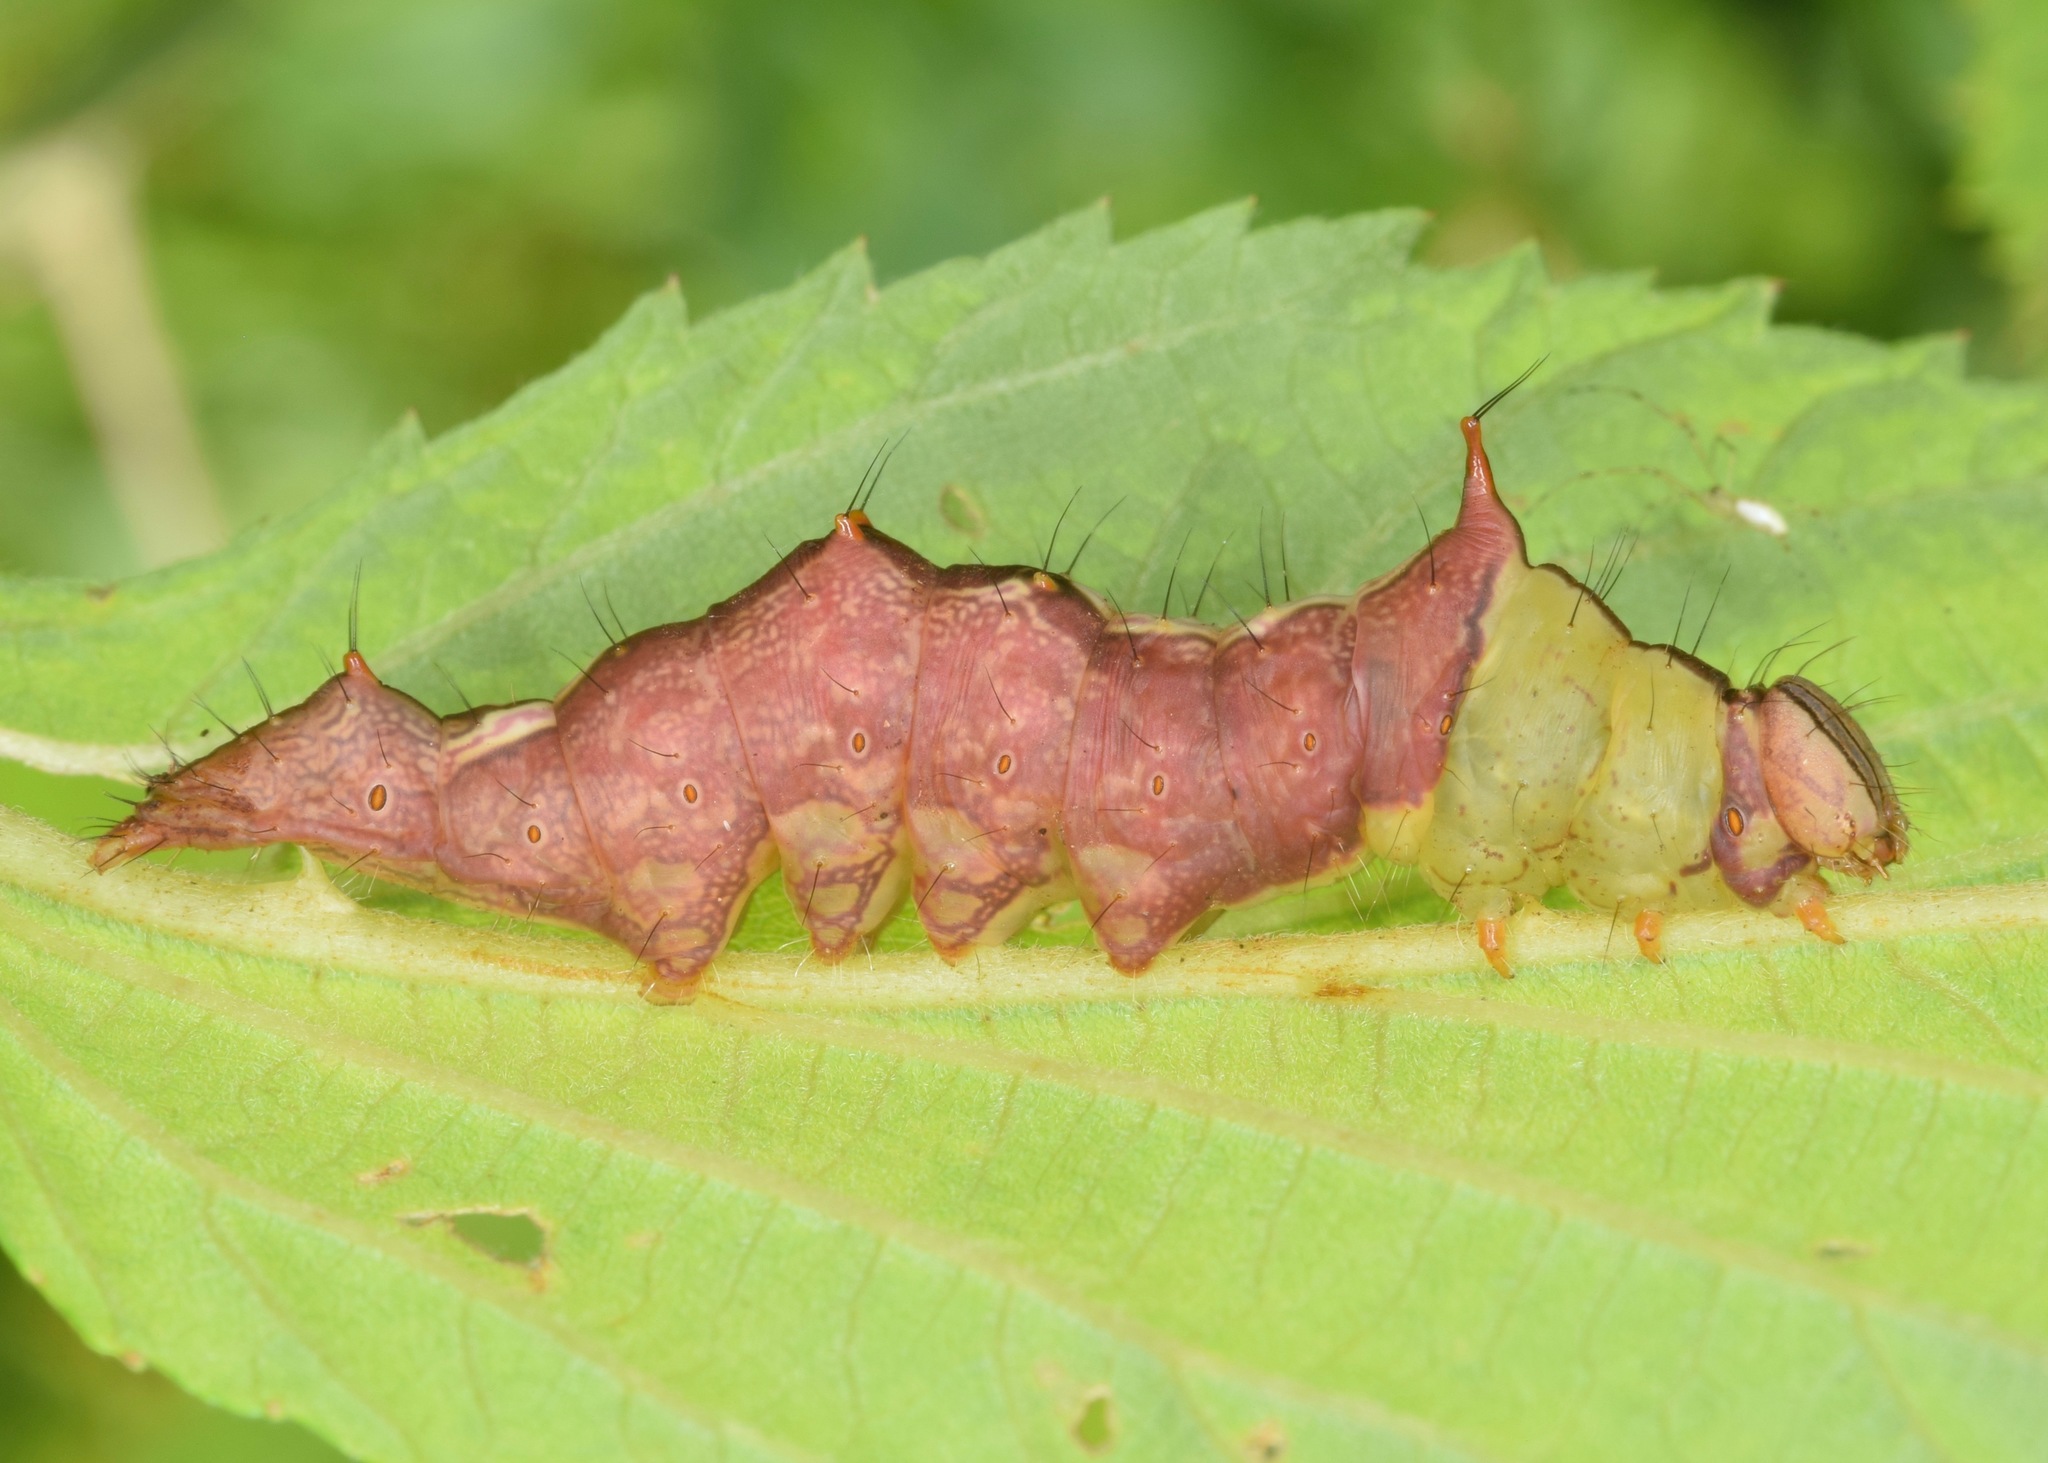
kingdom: Animalia
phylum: Arthropoda
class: Insecta
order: Lepidoptera
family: Notodontidae
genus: Schizura
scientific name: Schizura ipomaeae
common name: Morning-glory prominent
